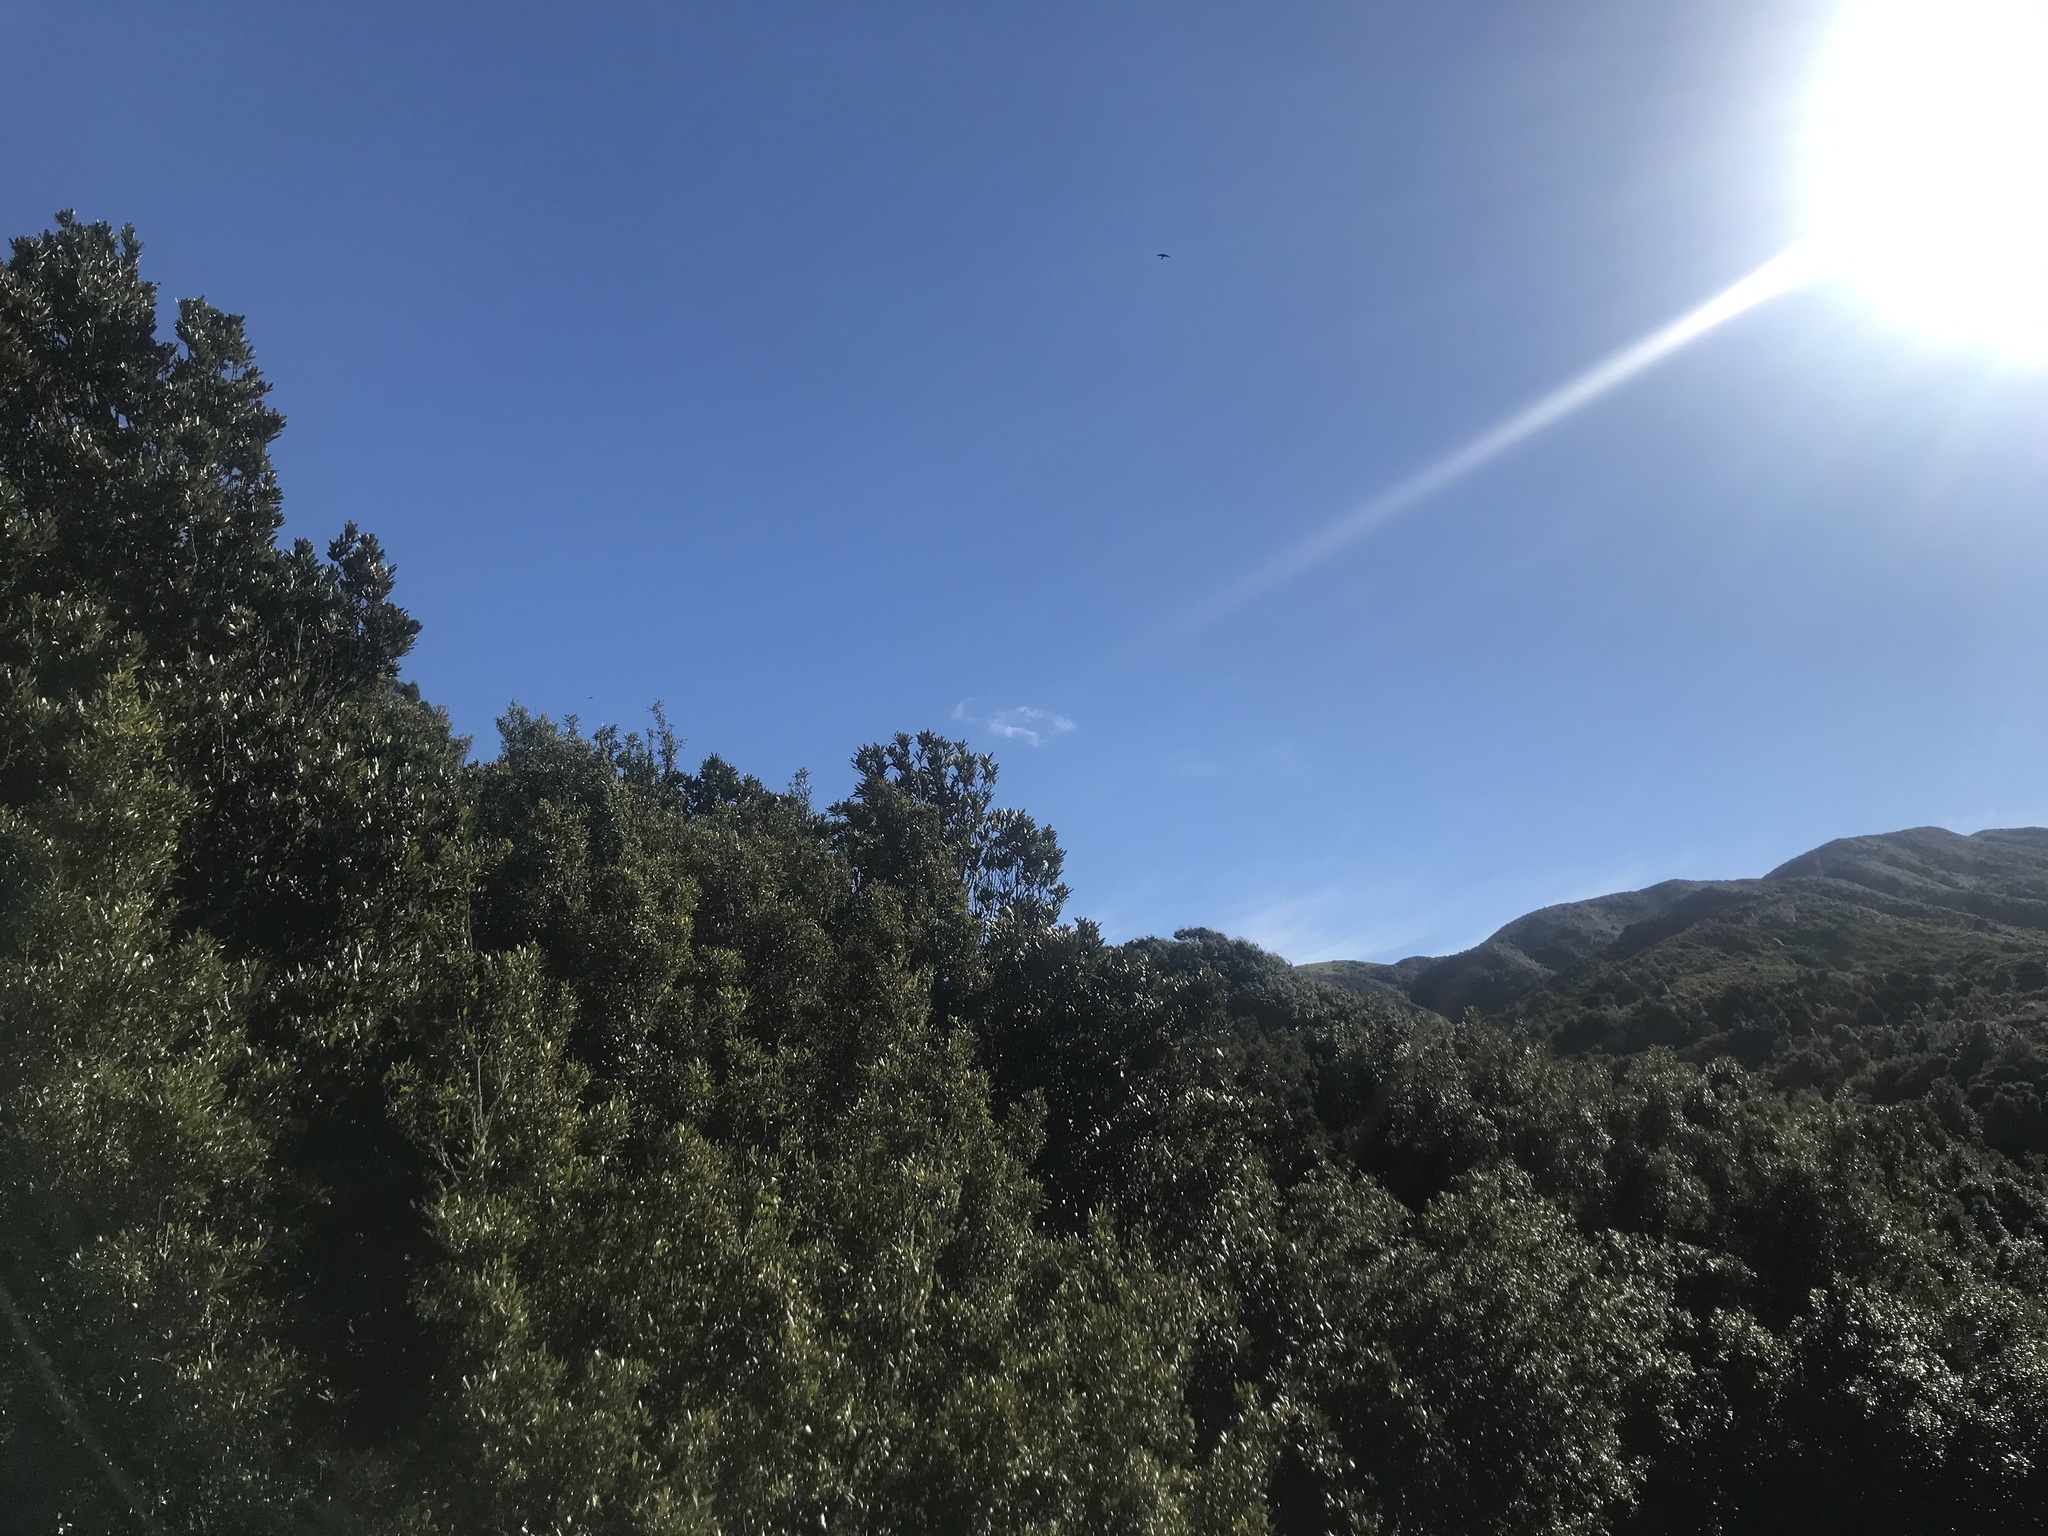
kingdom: Animalia
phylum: Chordata
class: Aves
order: Falconiformes
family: Falconidae
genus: Falco
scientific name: Falco novaeseelandiae
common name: New zealand falcon
